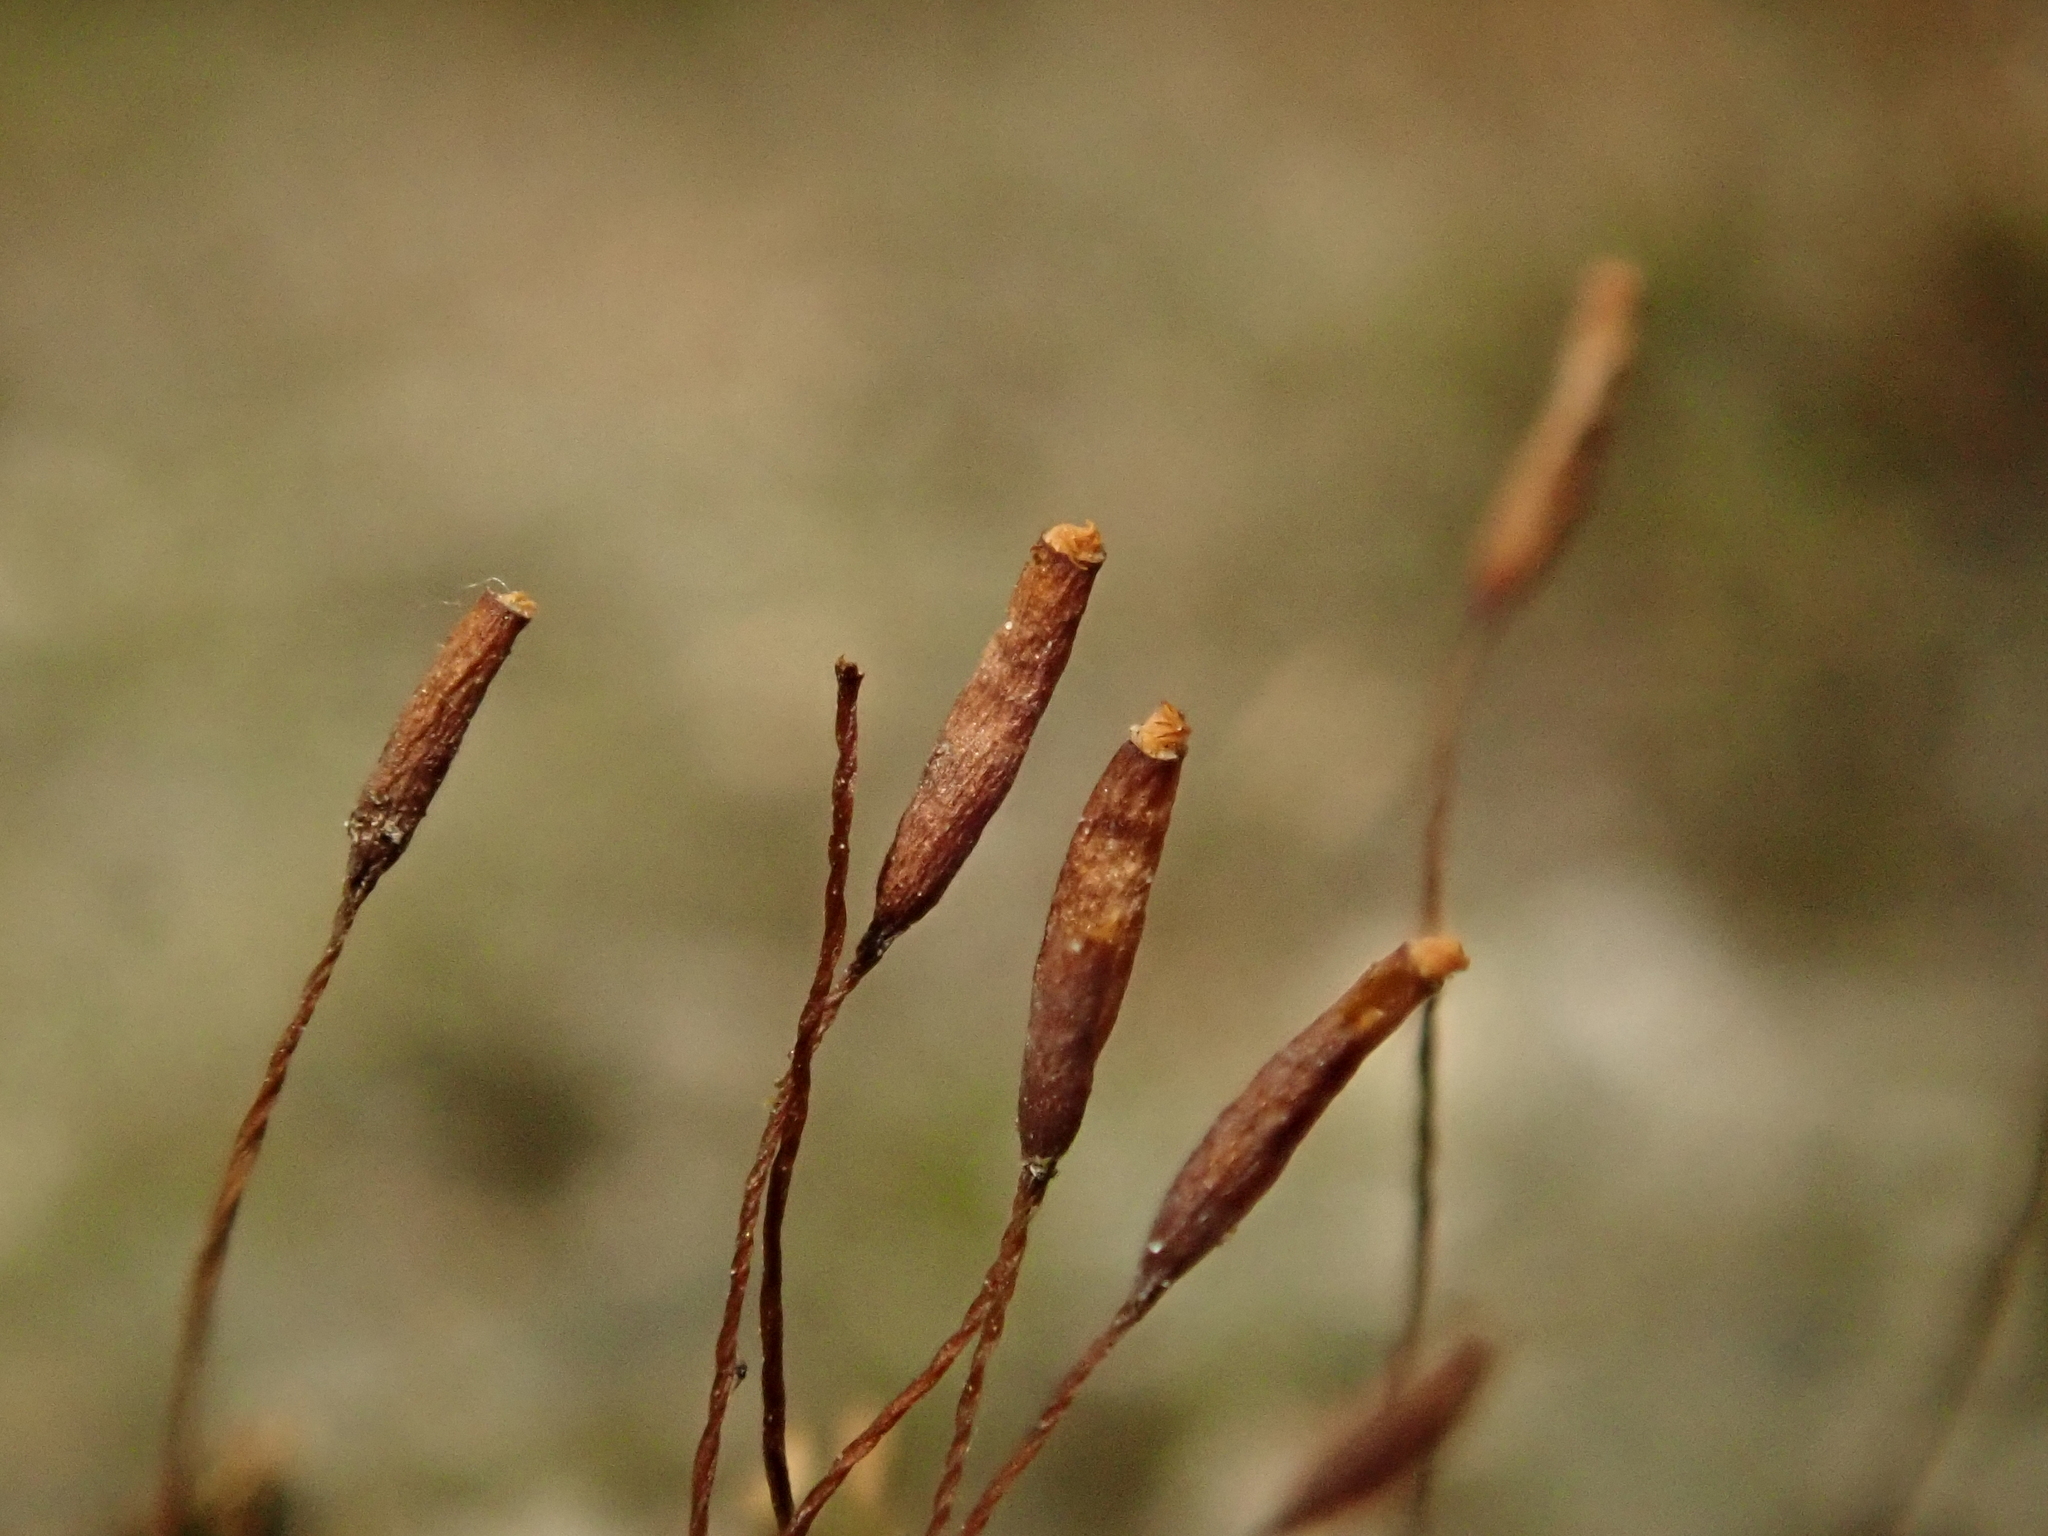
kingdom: Plantae
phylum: Bryophyta
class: Bryopsida
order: Pottiales
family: Pottiaceae
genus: Tortula
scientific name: Tortula muralis
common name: Wall screw-moss
